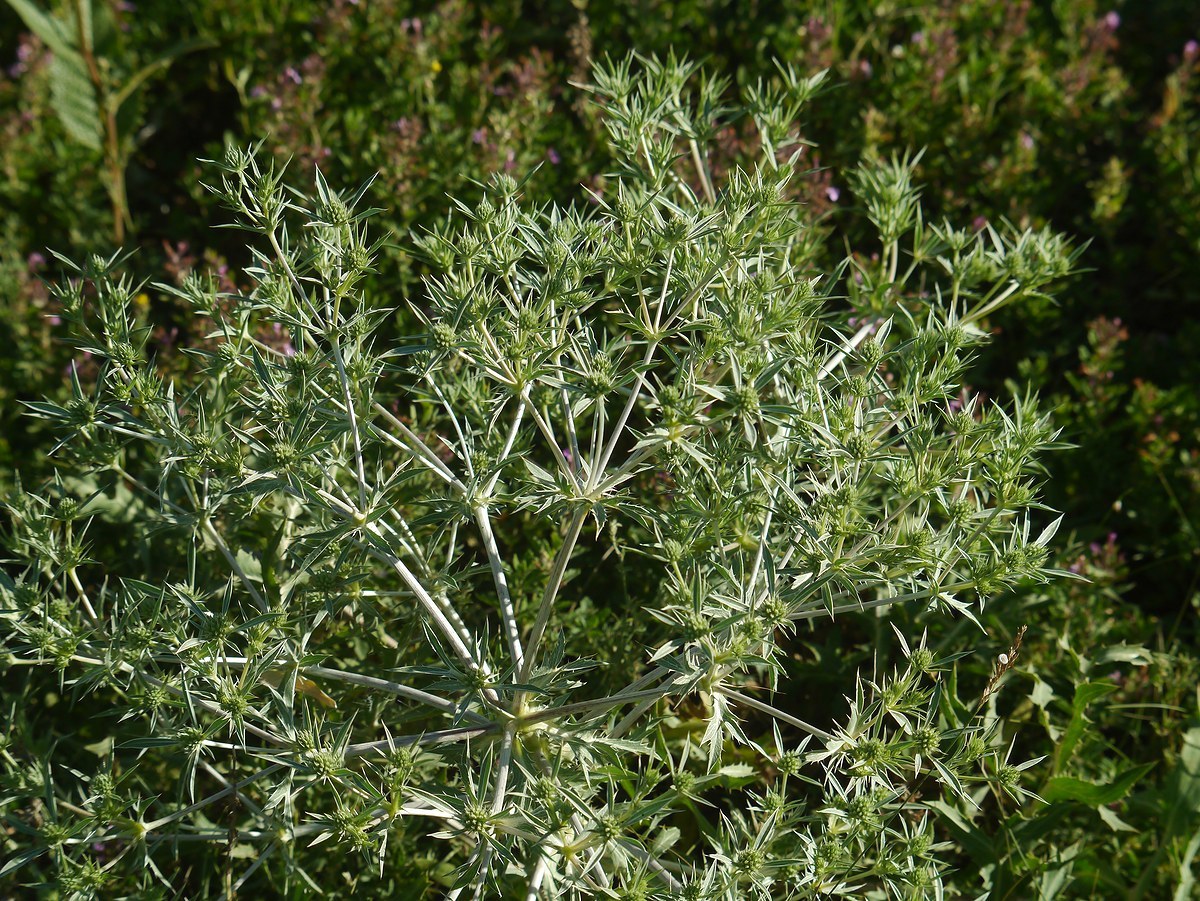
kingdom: Plantae
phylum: Tracheophyta
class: Magnoliopsida
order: Apiales
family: Apiaceae
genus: Eryngium
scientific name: Eryngium campestre
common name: Field eryngo
